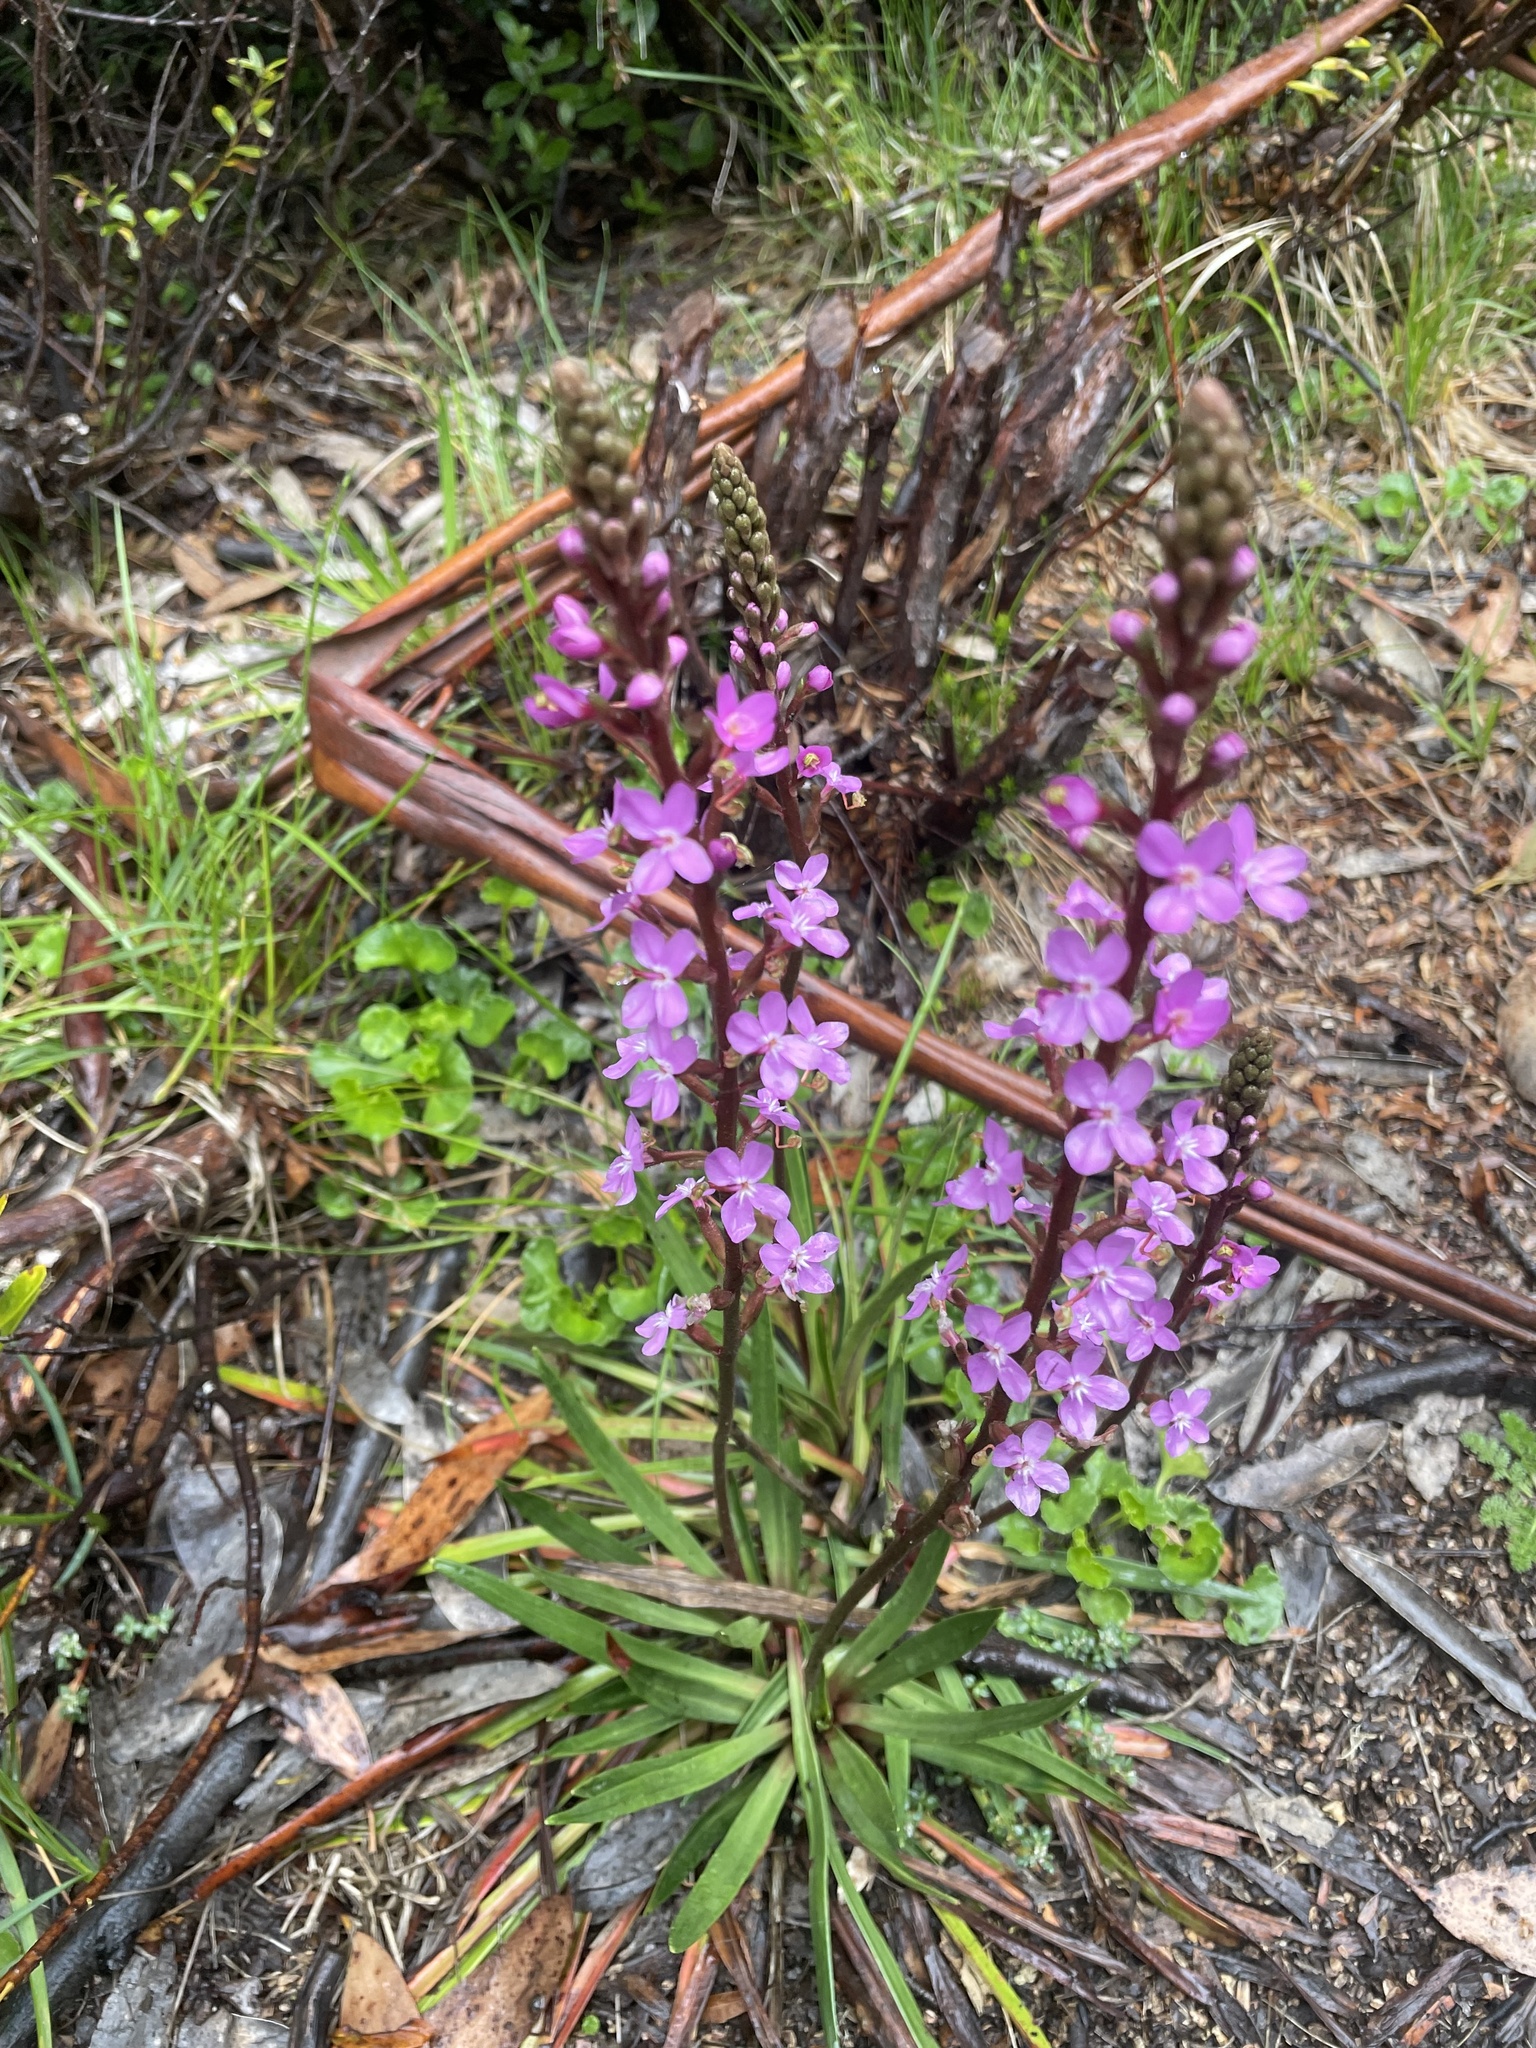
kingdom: Plantae
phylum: Tracheophyta
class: Magnoliopsida
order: Asterales
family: Stylidiaceae
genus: Stylidium
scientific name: Stylidium armeria
